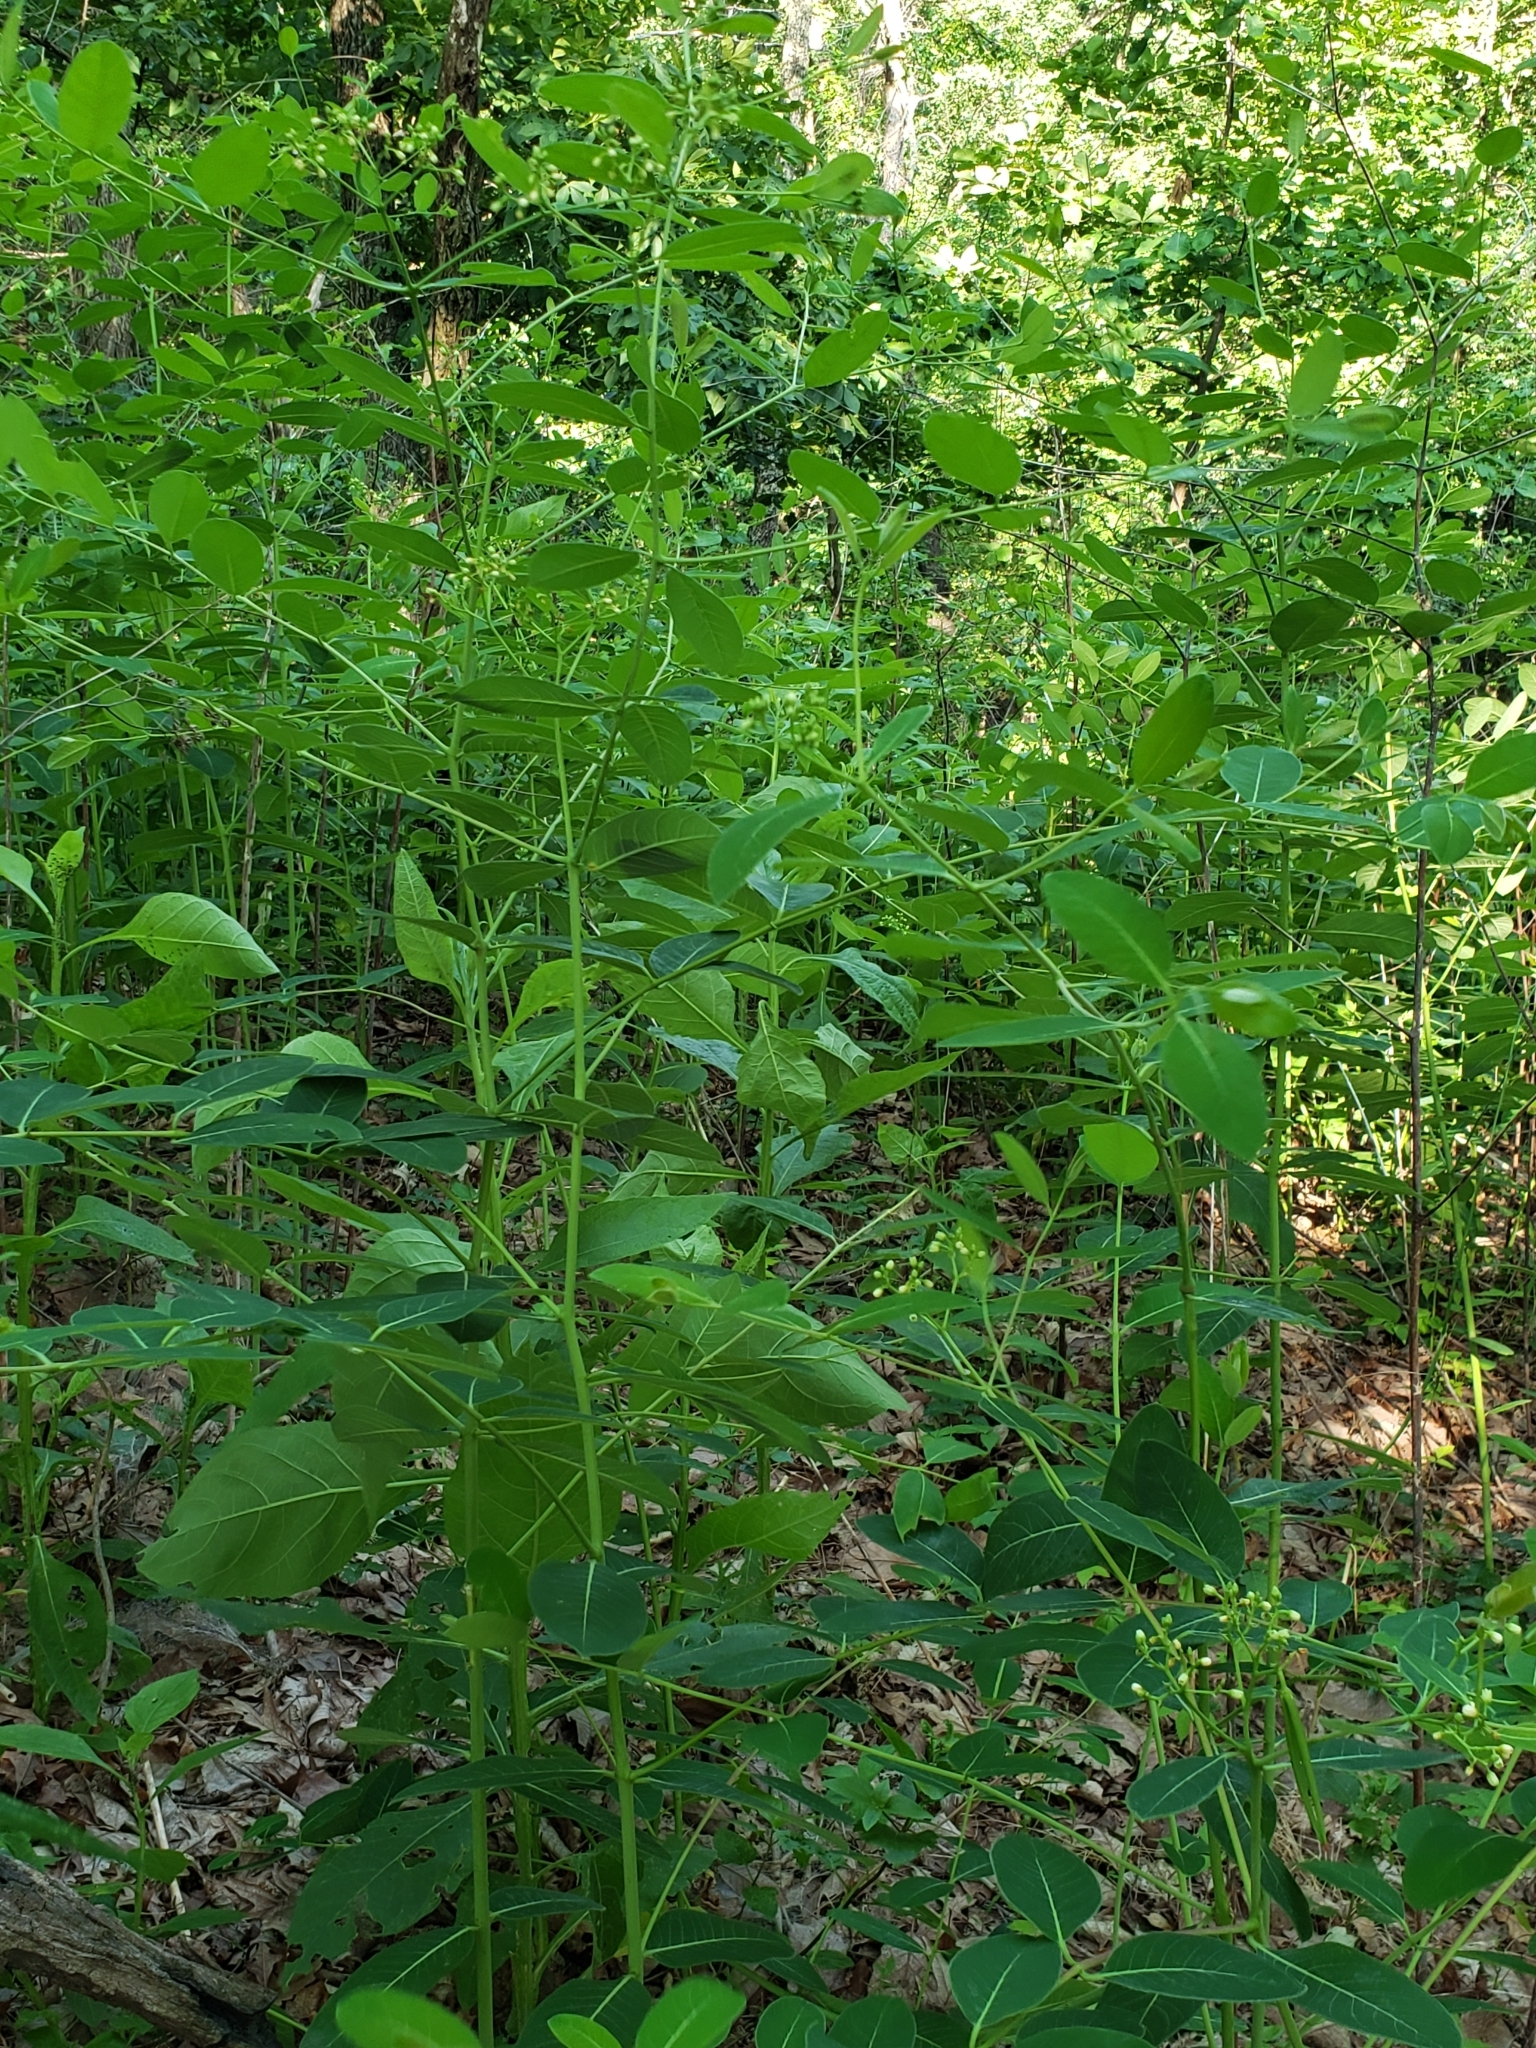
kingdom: Plantae
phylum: Tracheophyta
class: Magnoliopsida
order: Gentianales
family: Apocynaceae
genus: Apocynum
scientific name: Apocynum cannabinum
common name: Hemp dogbane
